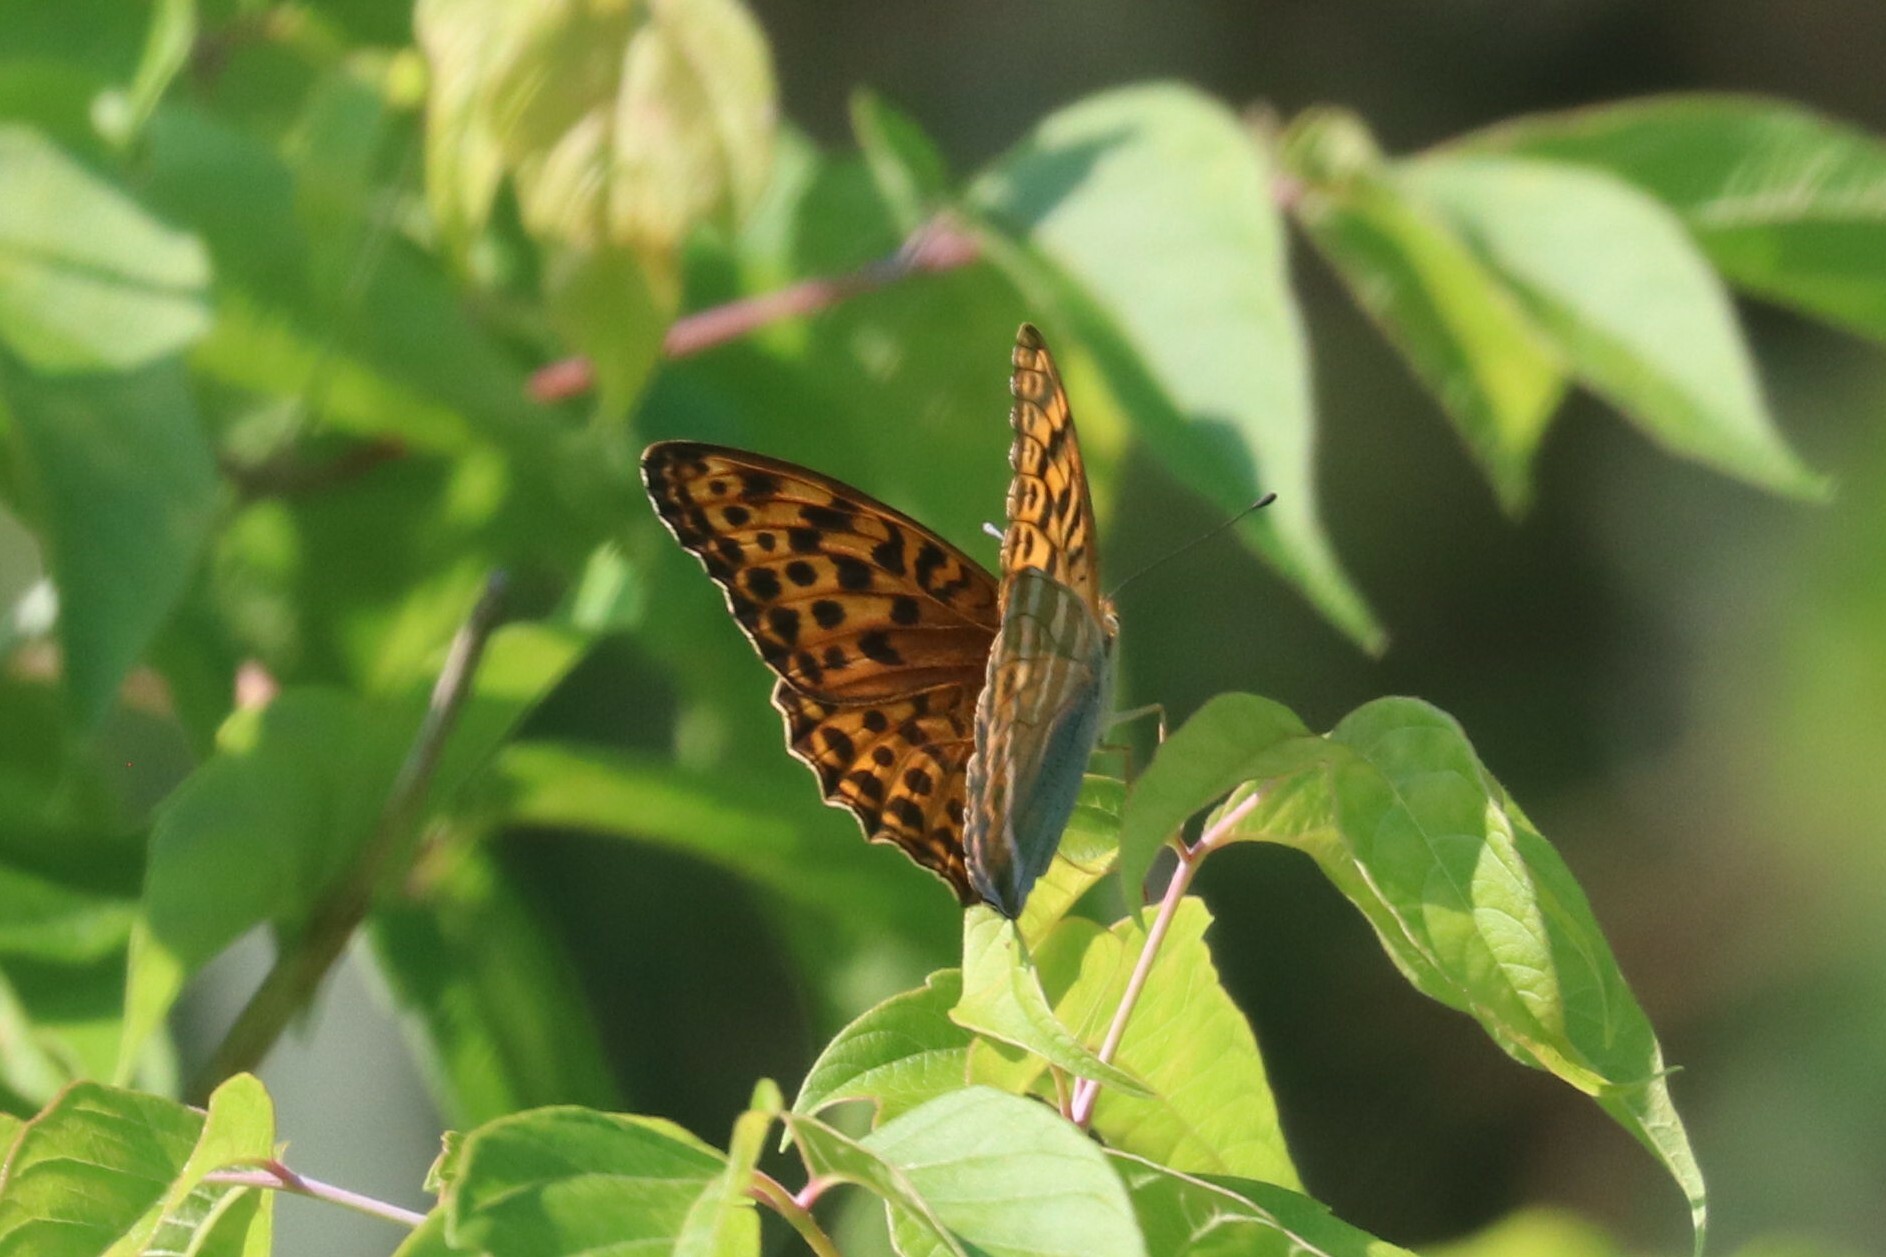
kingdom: Animalia
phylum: Arthropoda
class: Insecta
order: Lepidoptera
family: Nymphalidae
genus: Argynnis
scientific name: Argynnis paphia
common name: Silver-washed fritillary
